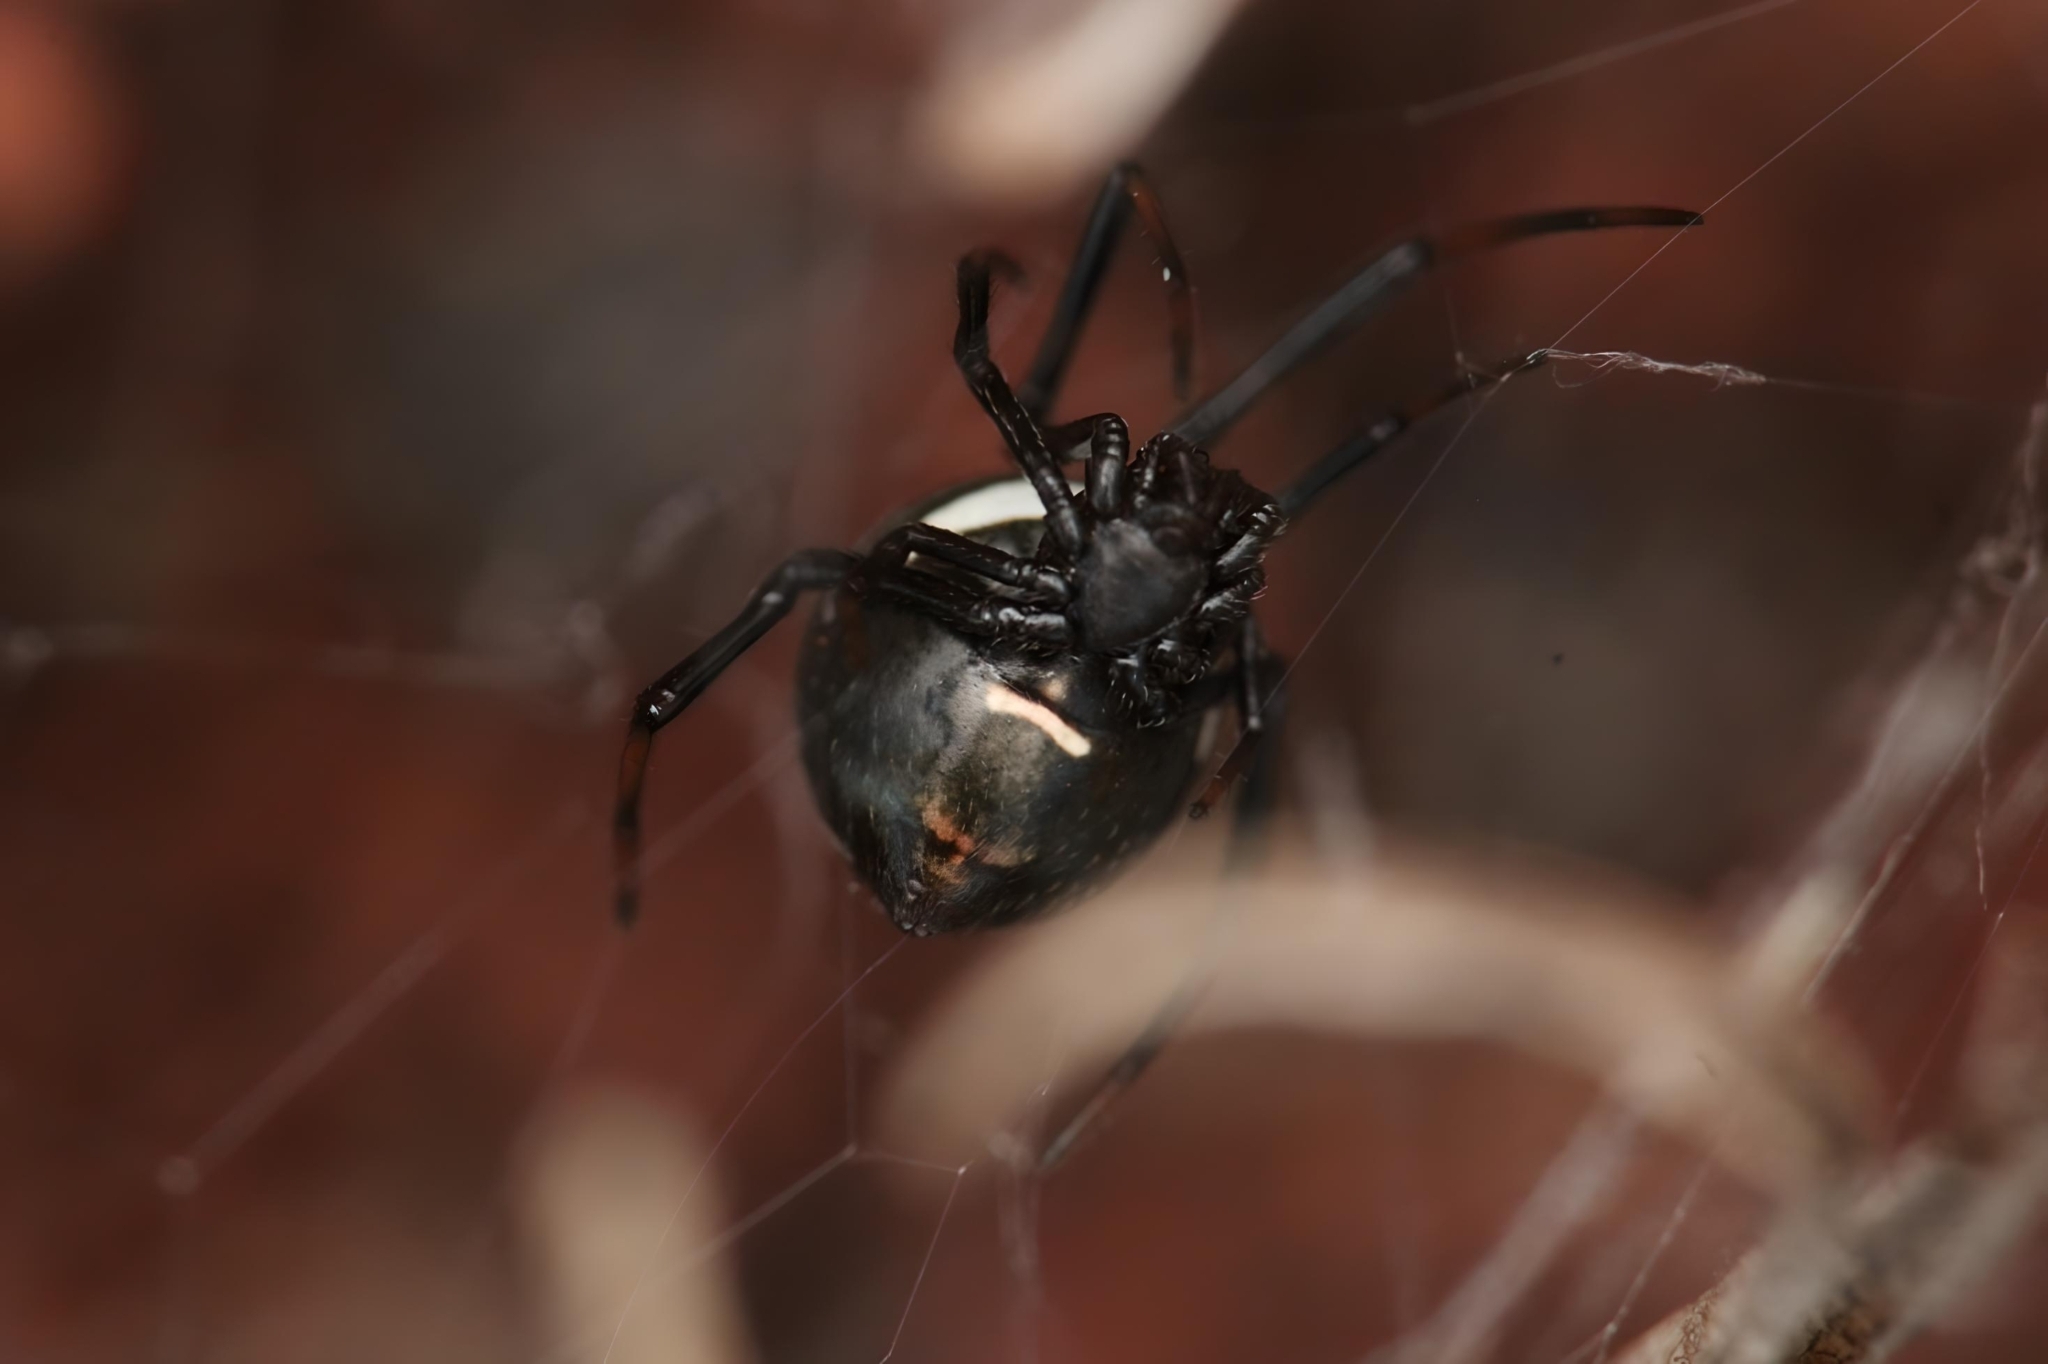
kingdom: Animalia
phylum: Arthropoda
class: Arachnida
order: Araneae
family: Theridiidae
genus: Latrodectus
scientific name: Latrodectus renivulvatus
